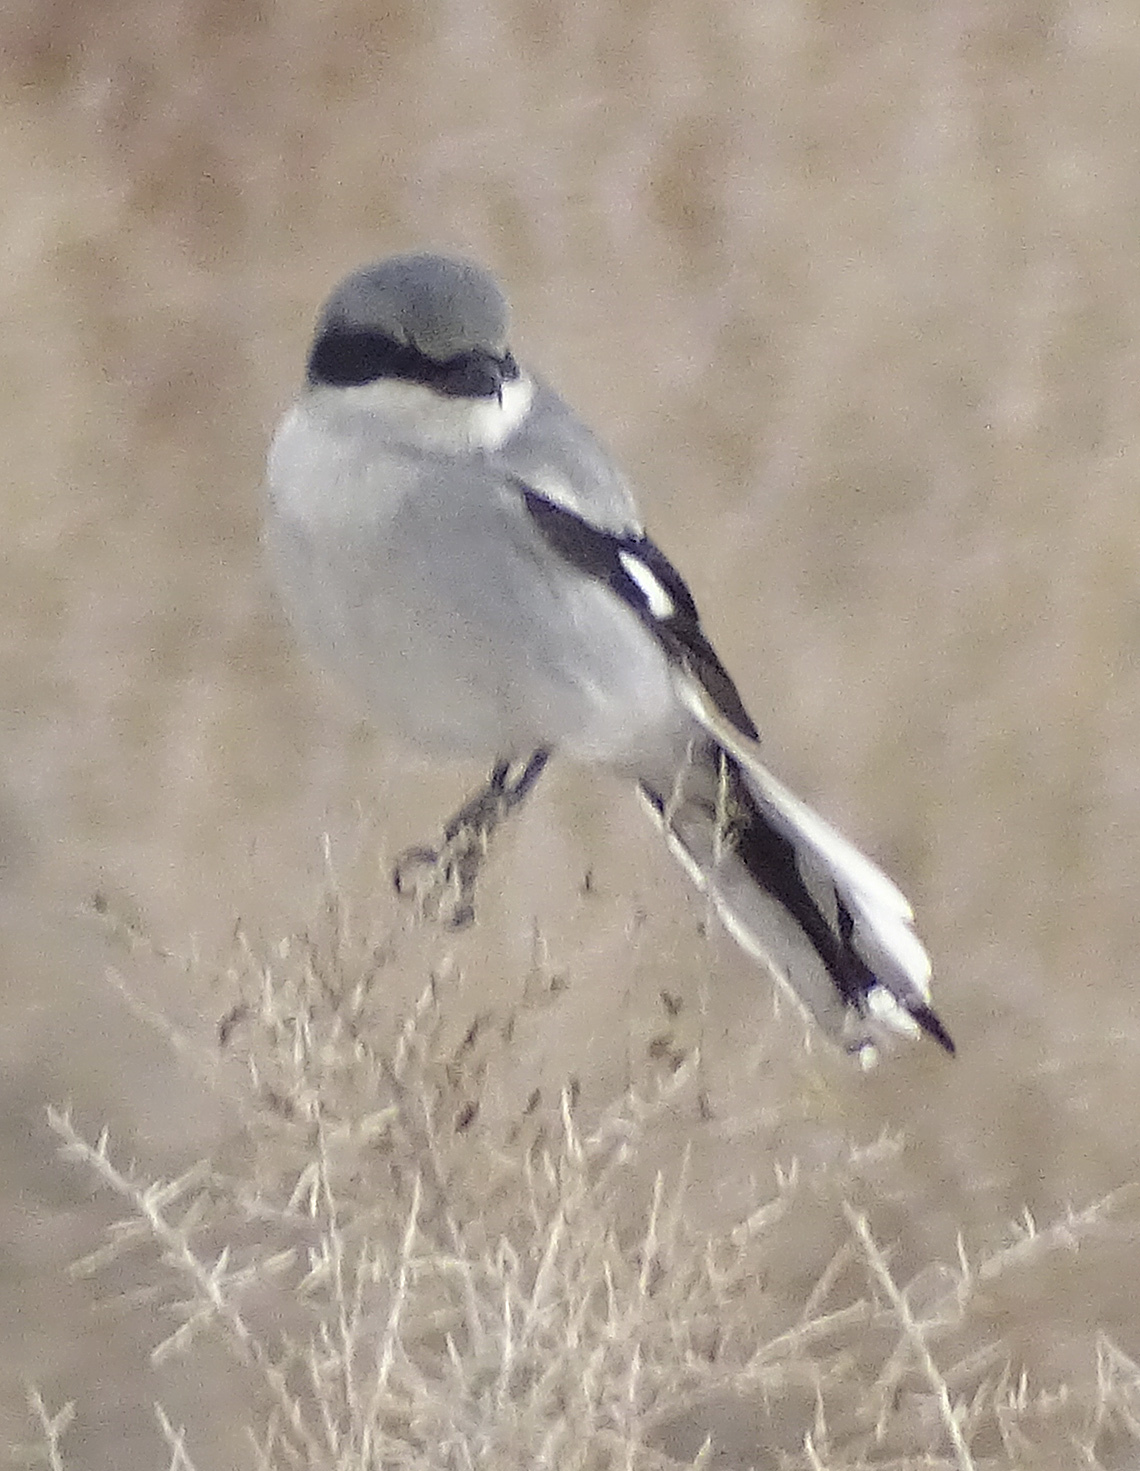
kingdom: Animalia
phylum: Chordata
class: Aves
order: Passeriformes
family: Laniidae
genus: Lanius
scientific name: Lanius ludovicianus
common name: Loggerhead shrike
